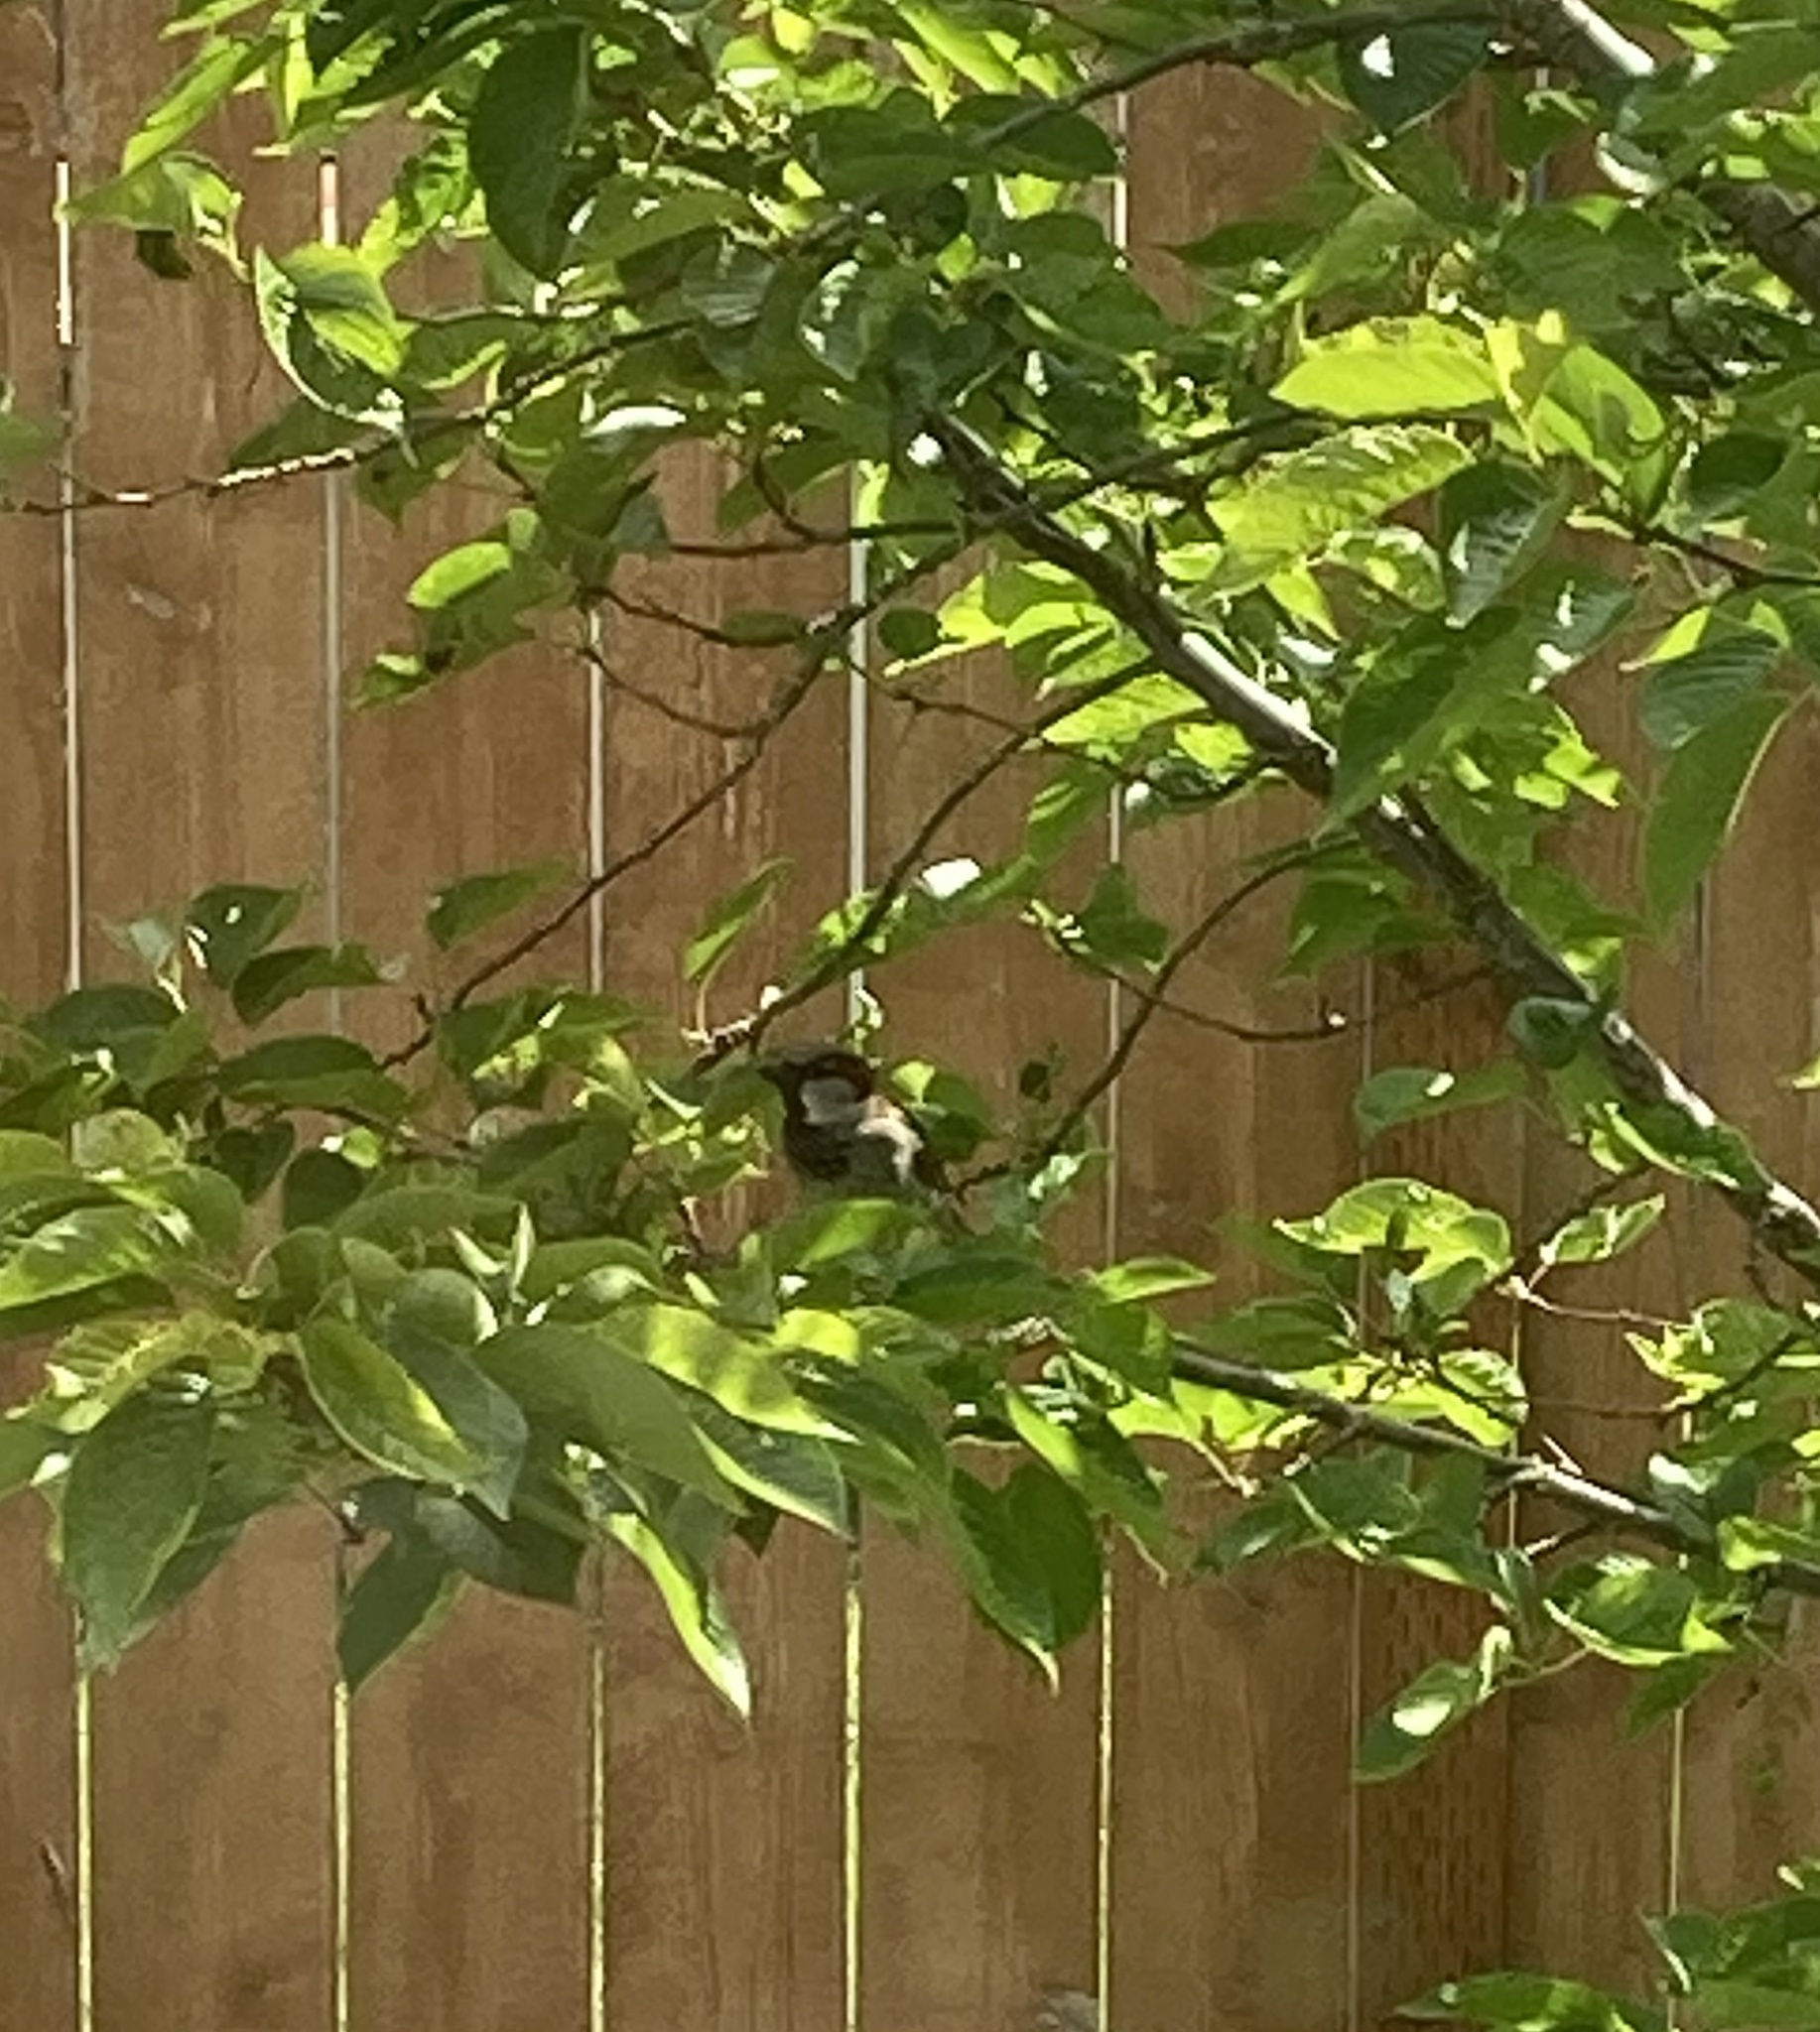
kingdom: Animalia
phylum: Chordata
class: Aves
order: Passeriformes
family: Passeridae
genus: Passer
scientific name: Passer domesticus
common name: House sparrow
